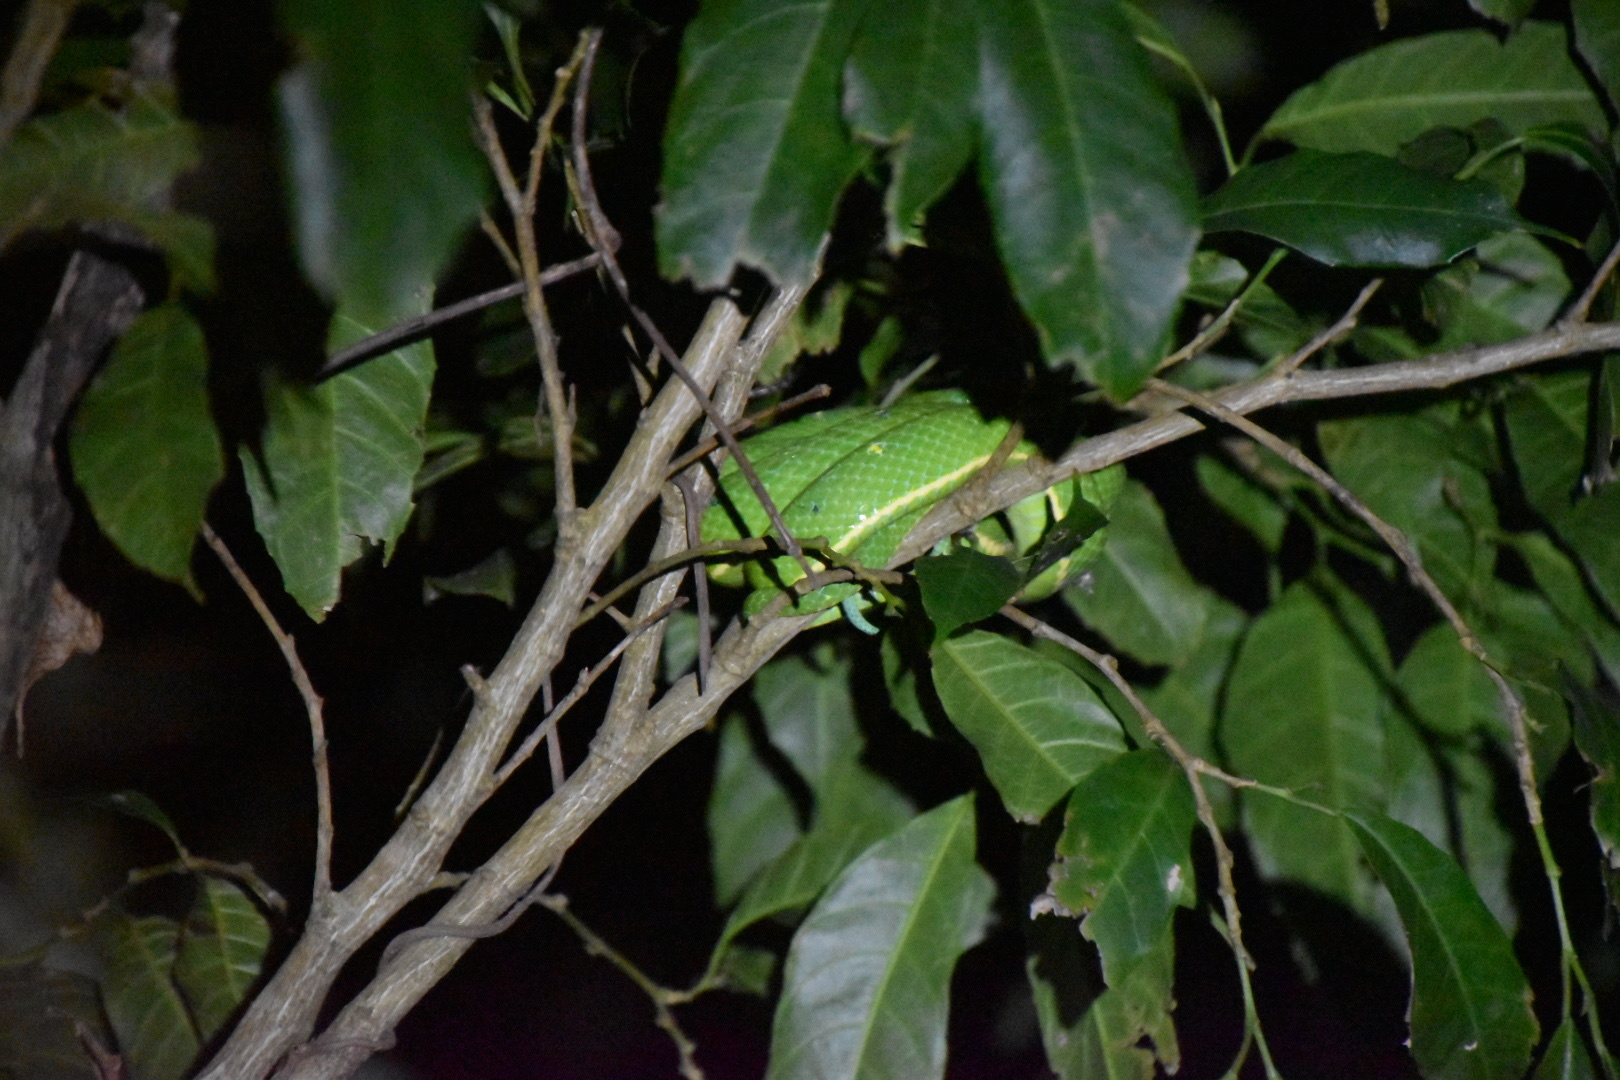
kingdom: Animalia
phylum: Chordata
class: Squamata
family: Viperidae
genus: Bothriechis
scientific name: Bothriechis lateralis
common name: Coffee palm viper
